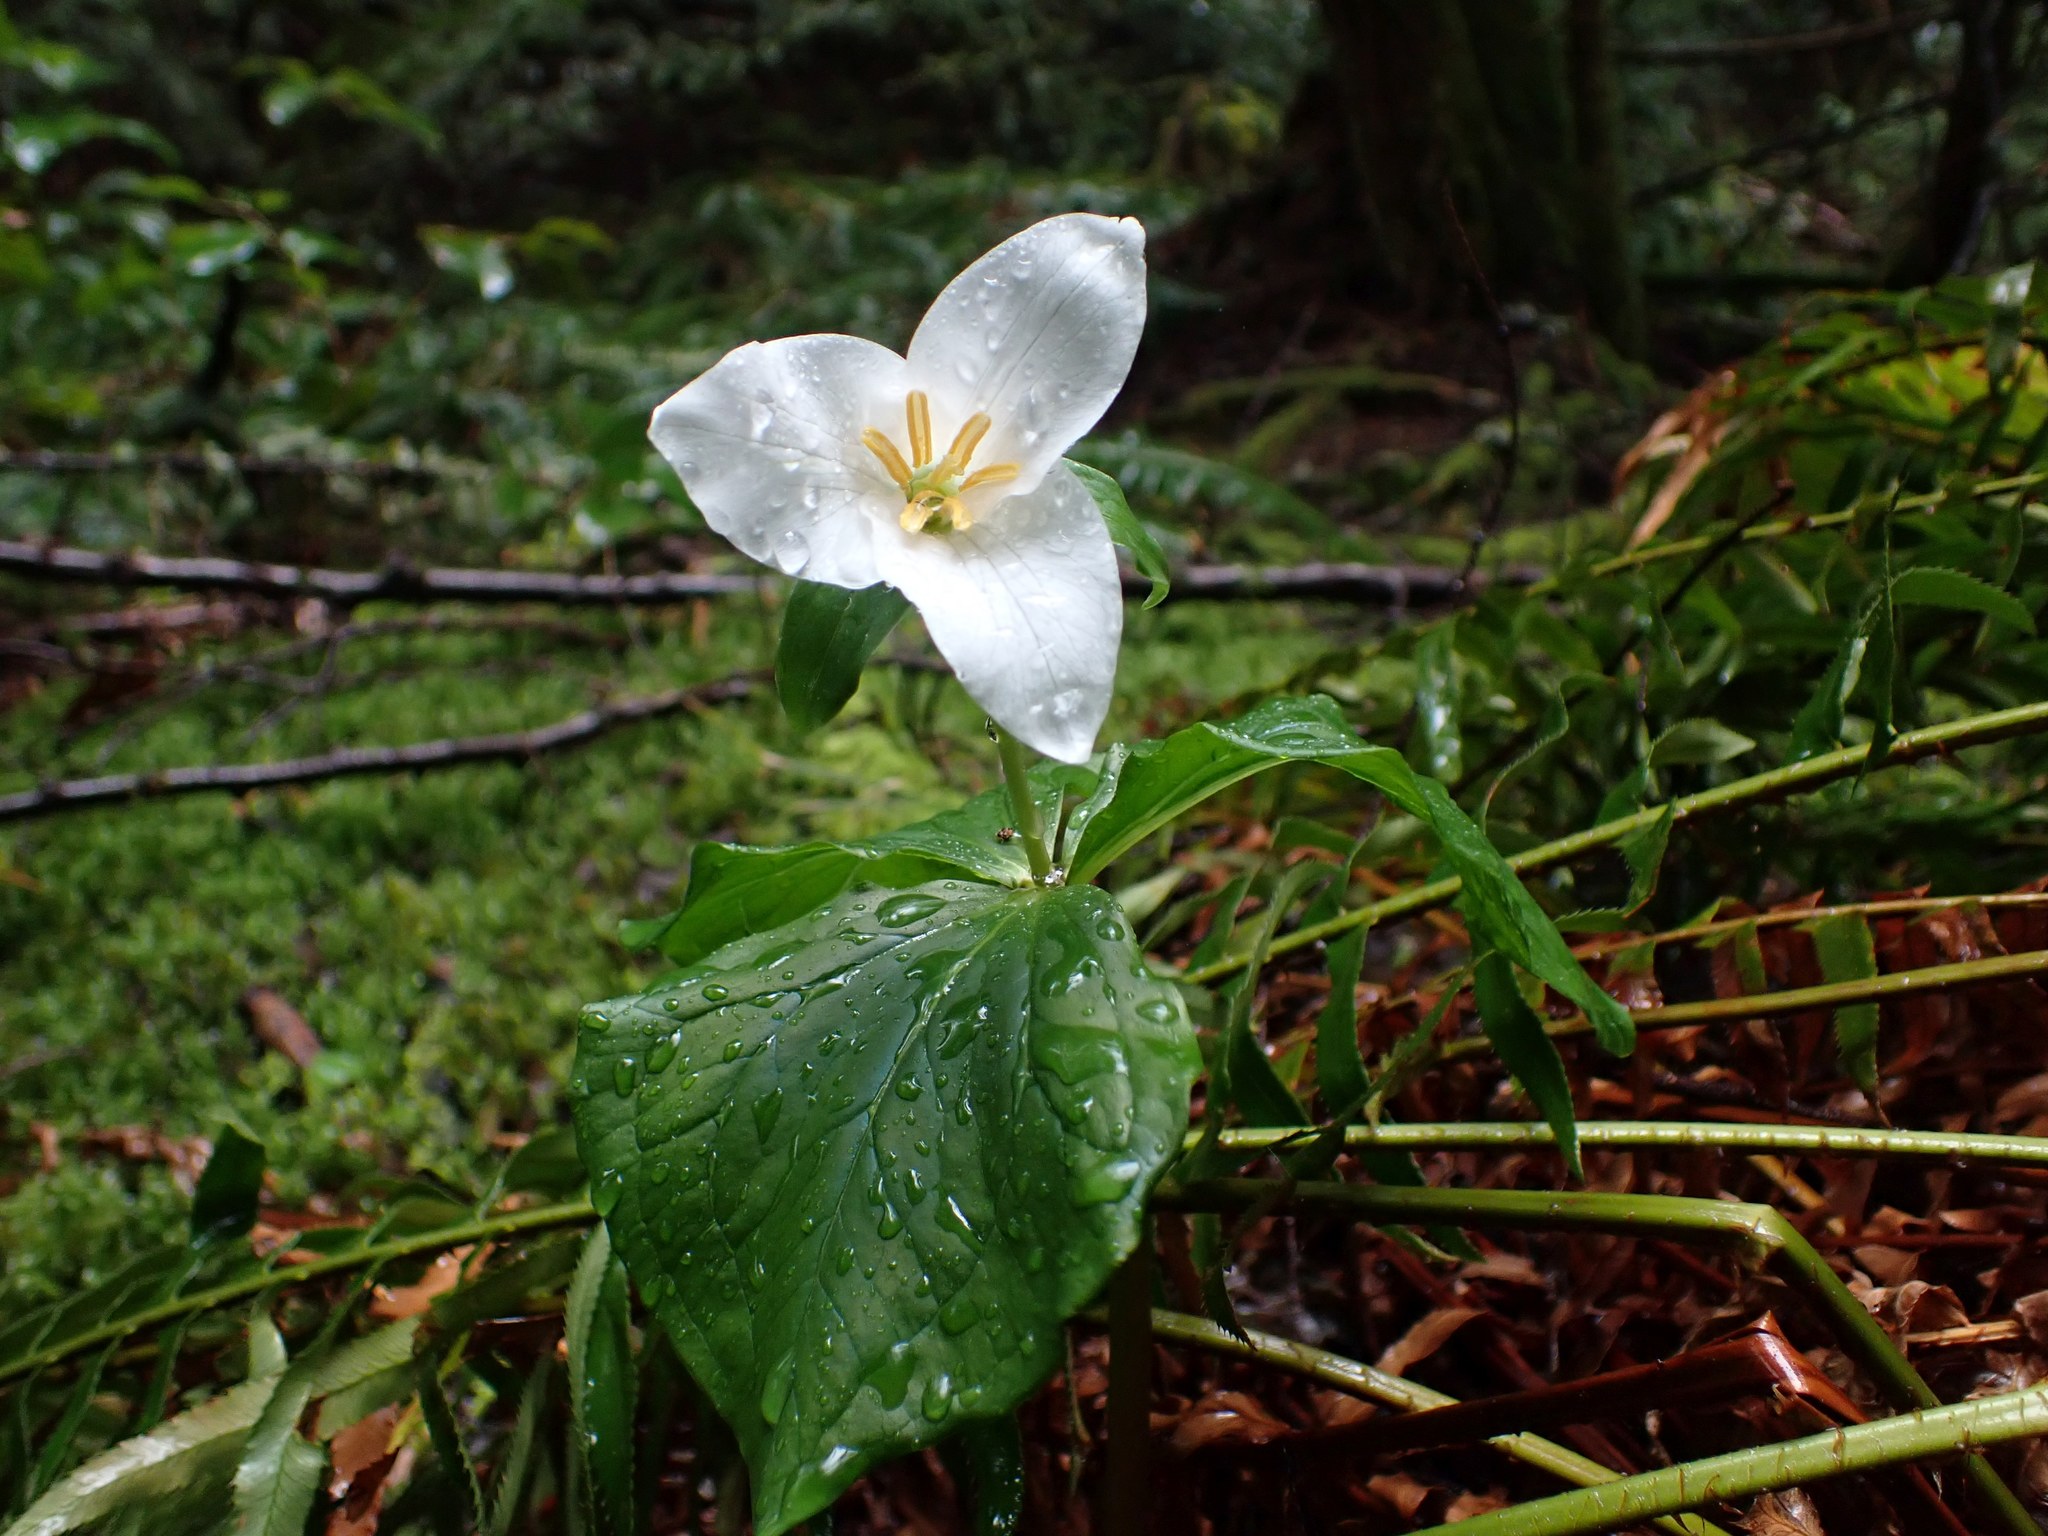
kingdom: Plantae
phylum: Tracheophyta
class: Liliopsida
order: Liliales
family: Melanthiaceae
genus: Trillium
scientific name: Trillium ovatum
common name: Pacific trillium
